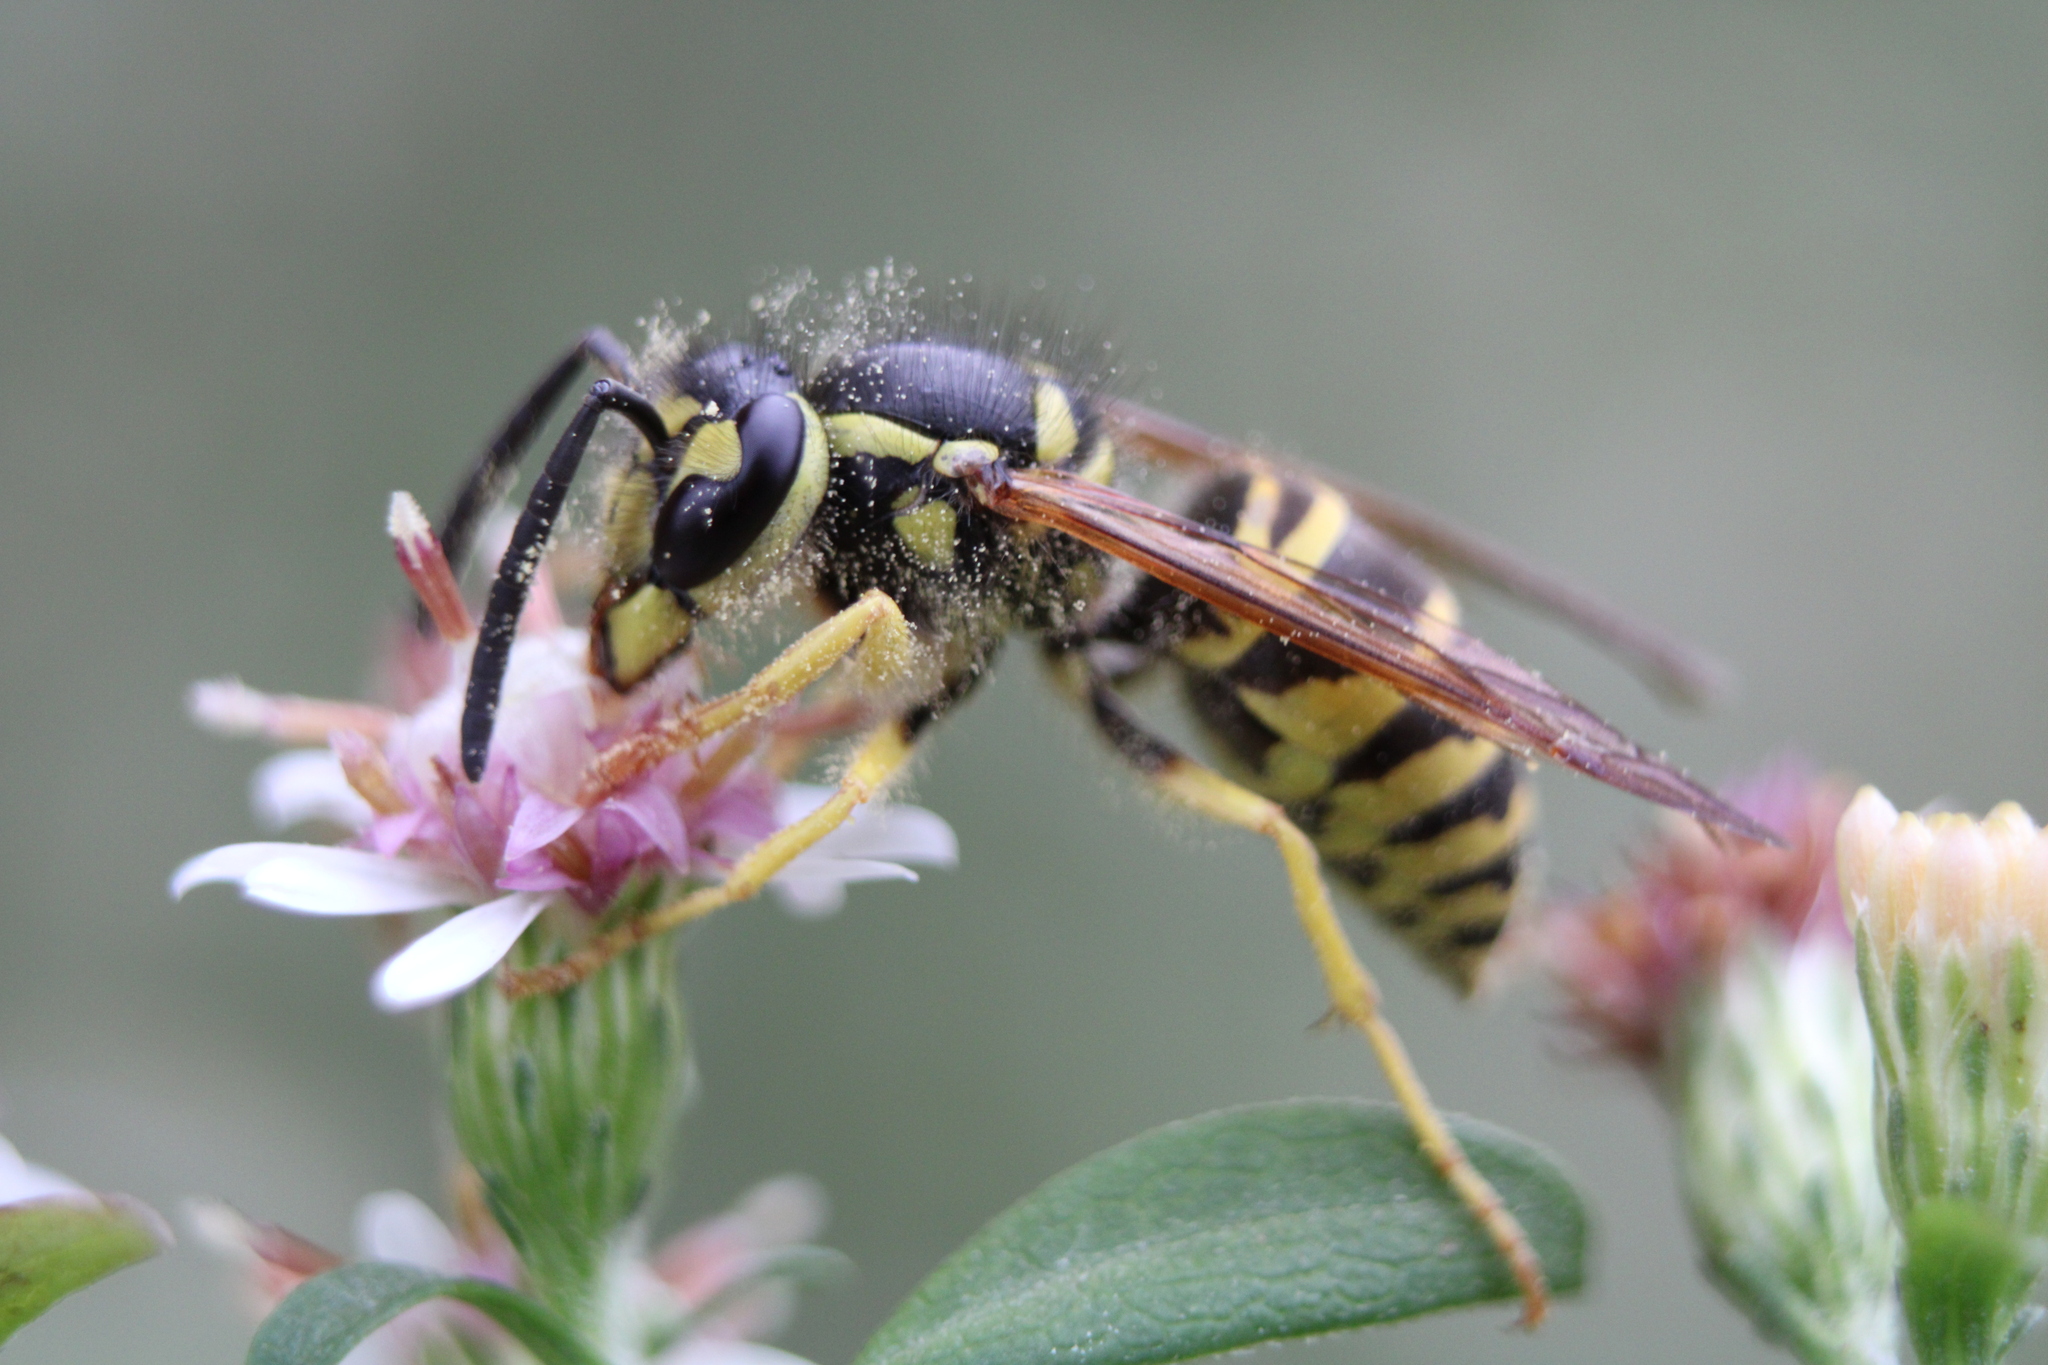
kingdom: Animalia
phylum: Arthropoda
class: Insecta
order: Hymenoptera
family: Vespidae
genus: Vespula
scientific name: Vespula maculifrons
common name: Eastern yellowjacket
